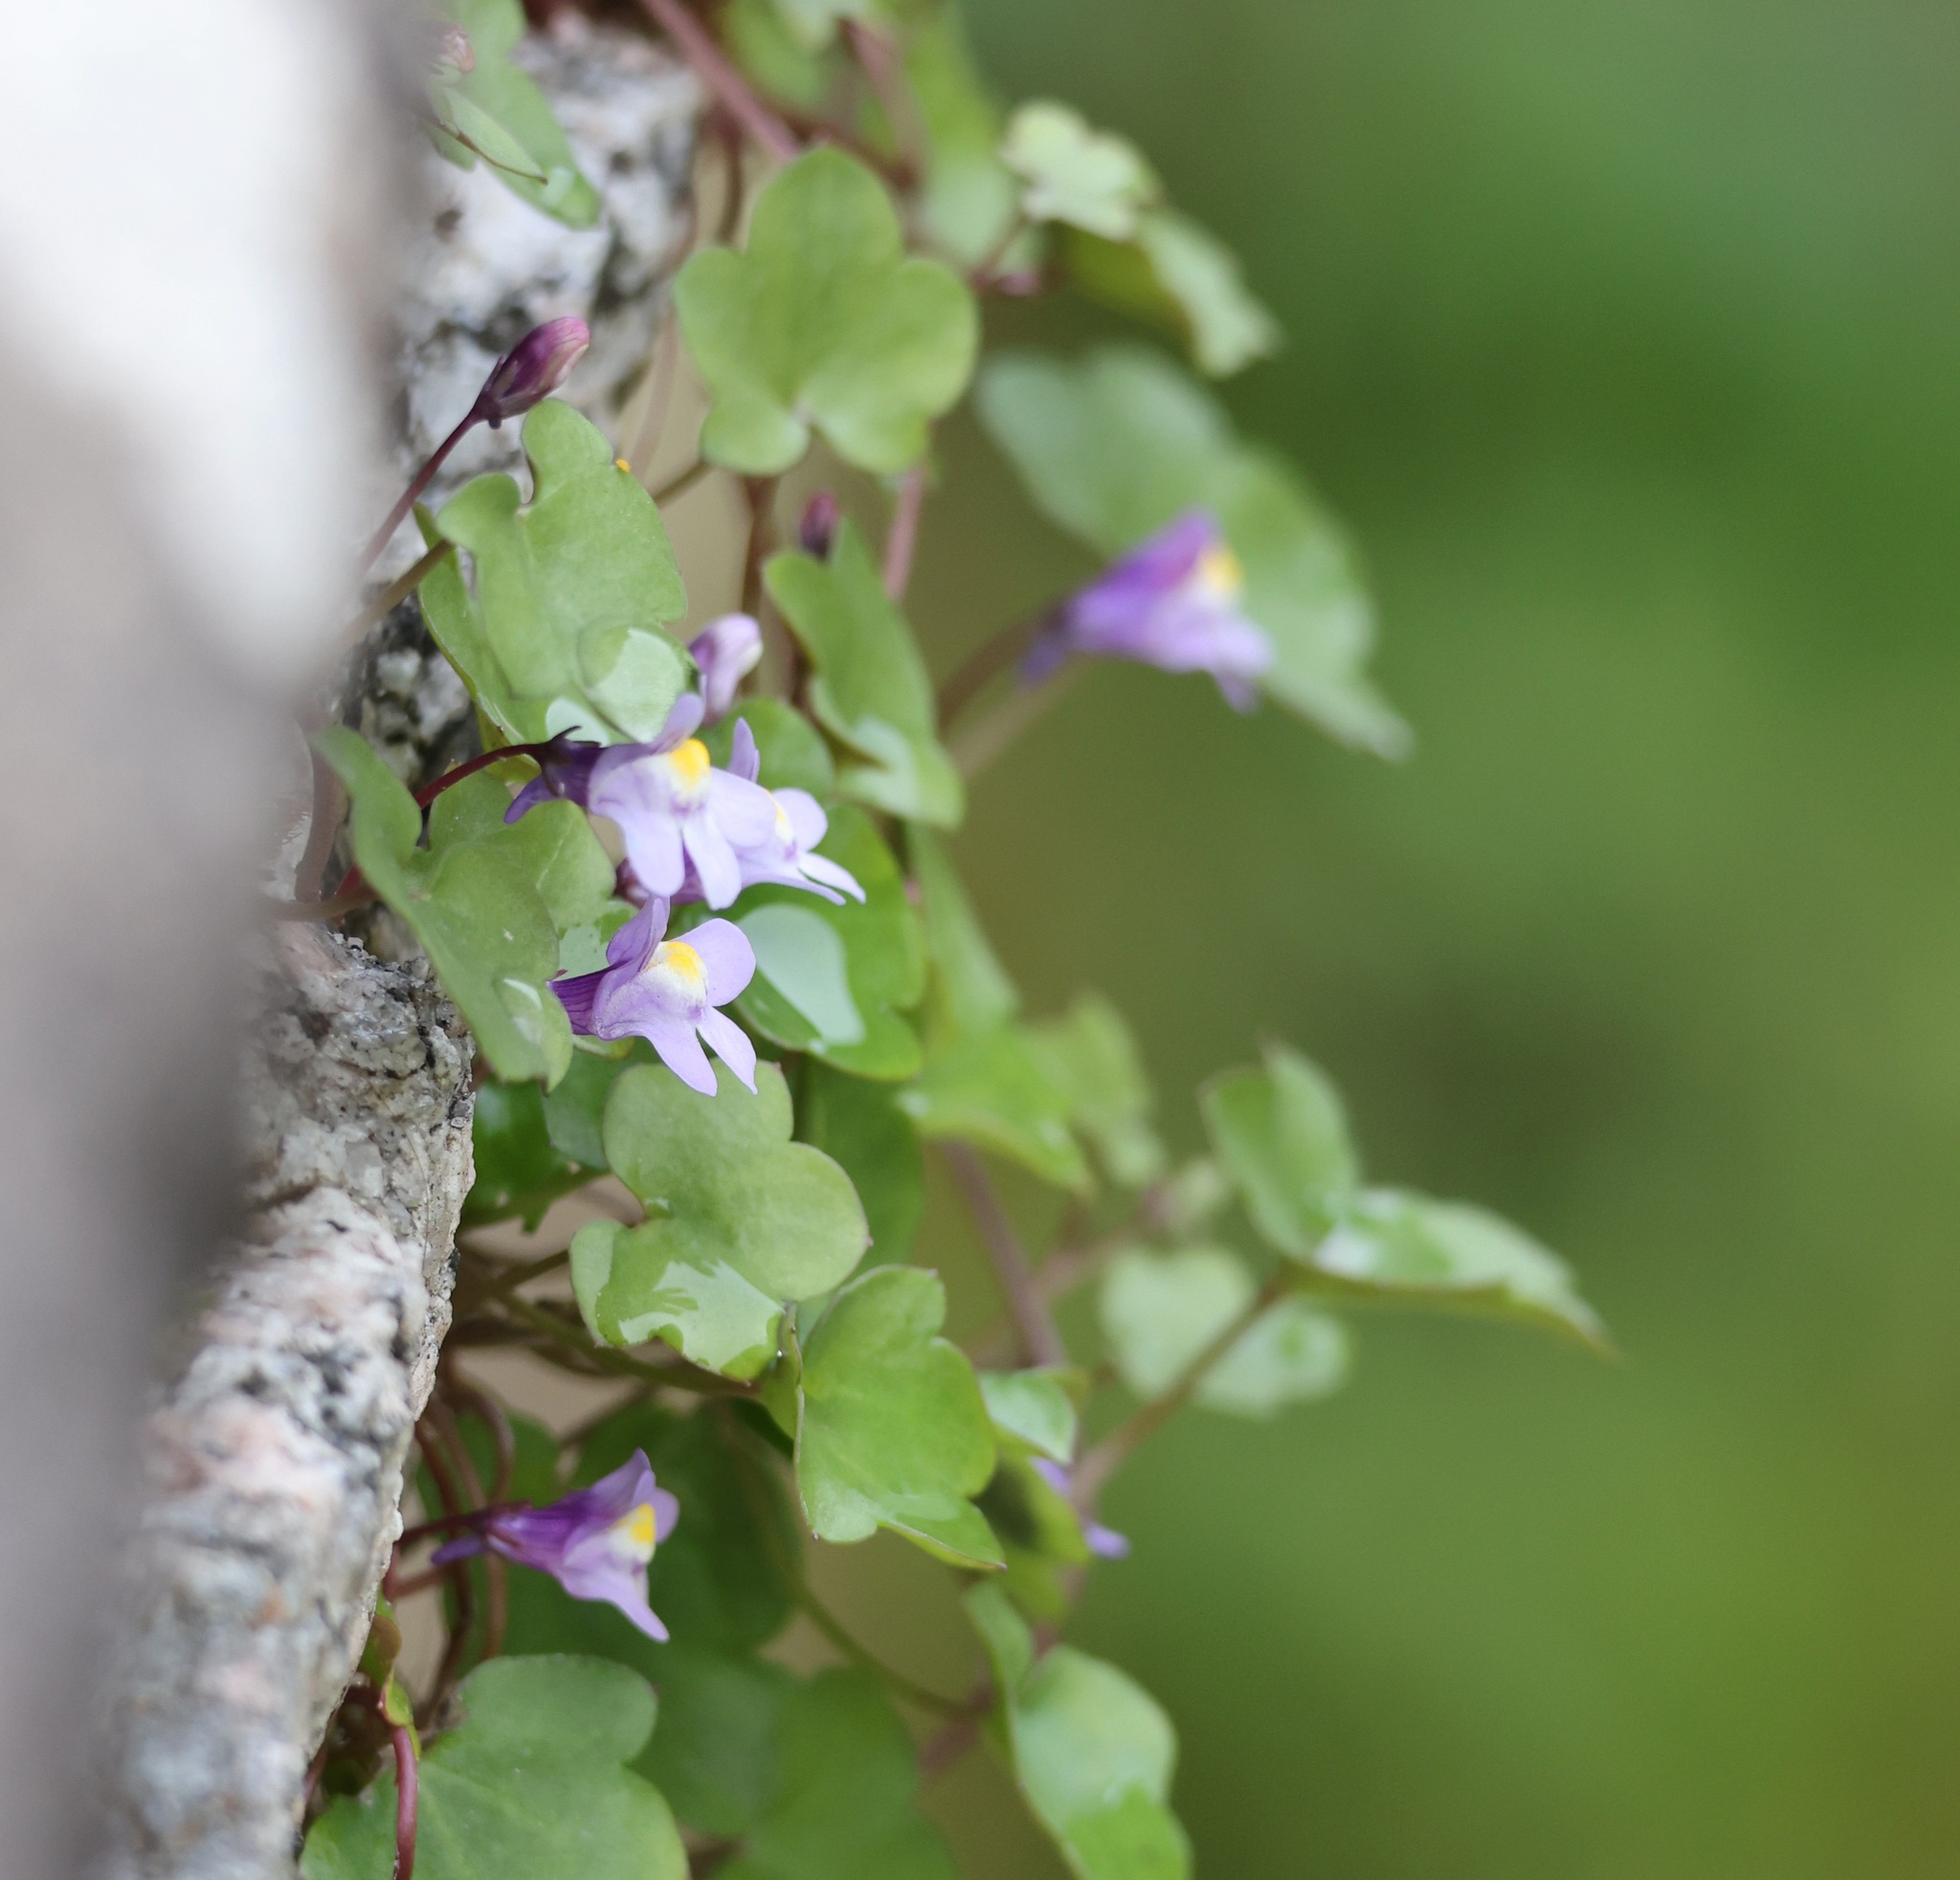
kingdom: Plantae
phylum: Tracheophyta
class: Magnoliopsida
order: Lamiales
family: Plantaginaceae
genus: Cymbalaria
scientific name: Cymbalaria muralis
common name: Ivy-leaved toadflax
